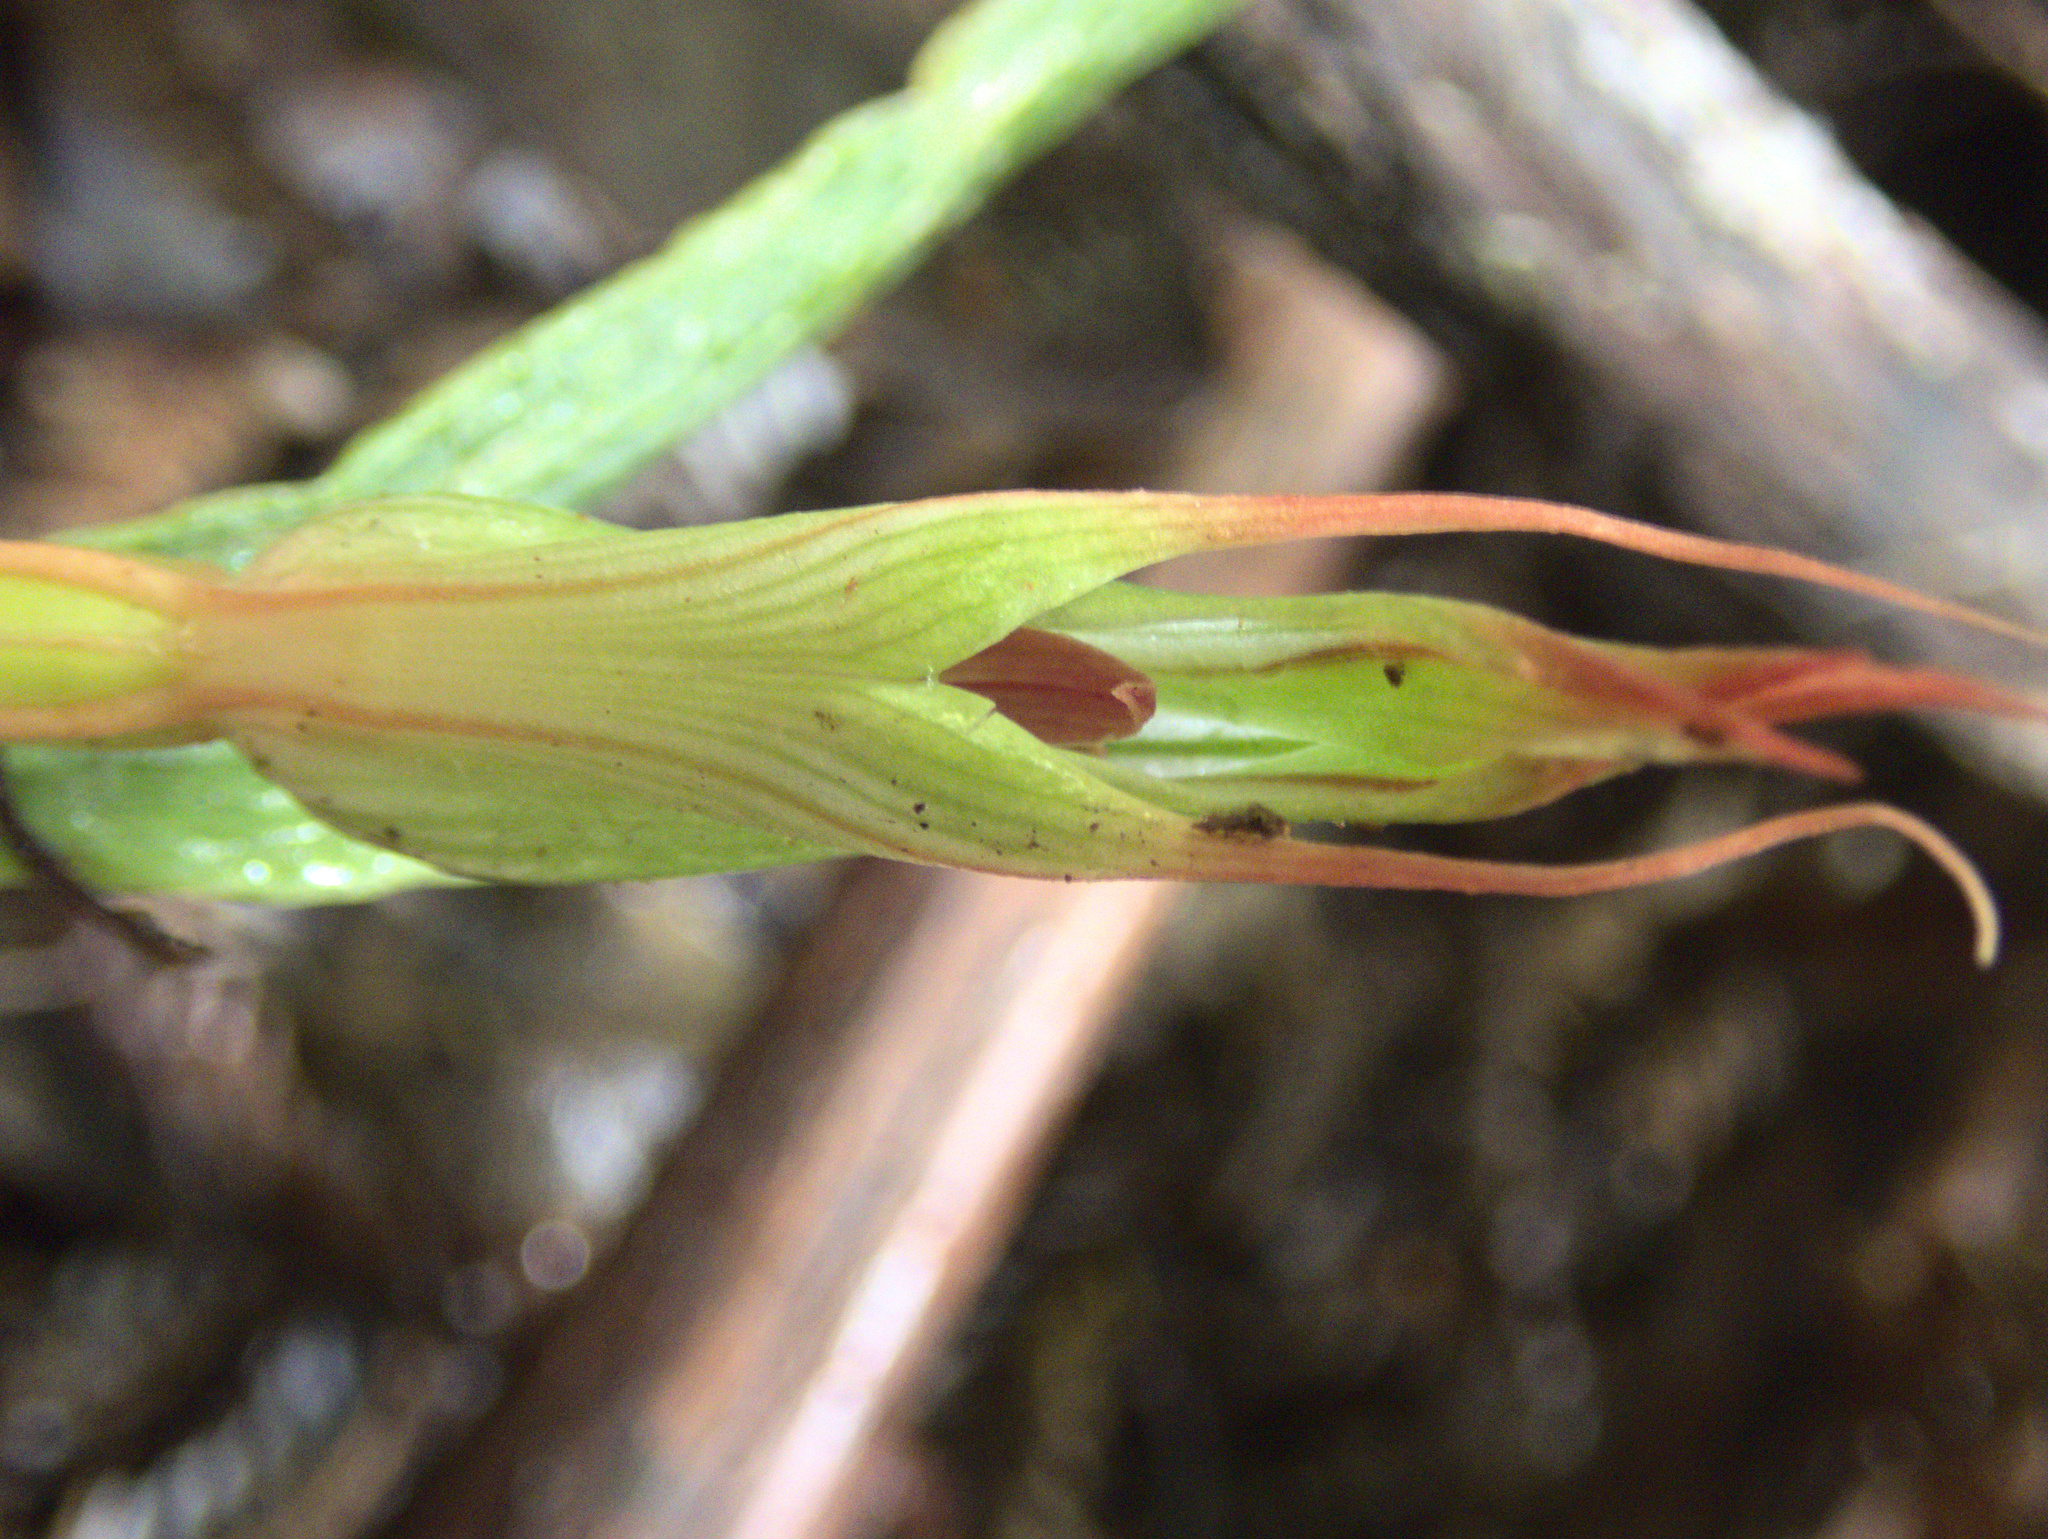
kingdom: Plantae
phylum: Tracheophyta
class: Liliopsida
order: Asparagales
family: Orchidaceae
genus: Pterostylis
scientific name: Pterostylis cardiostigma
